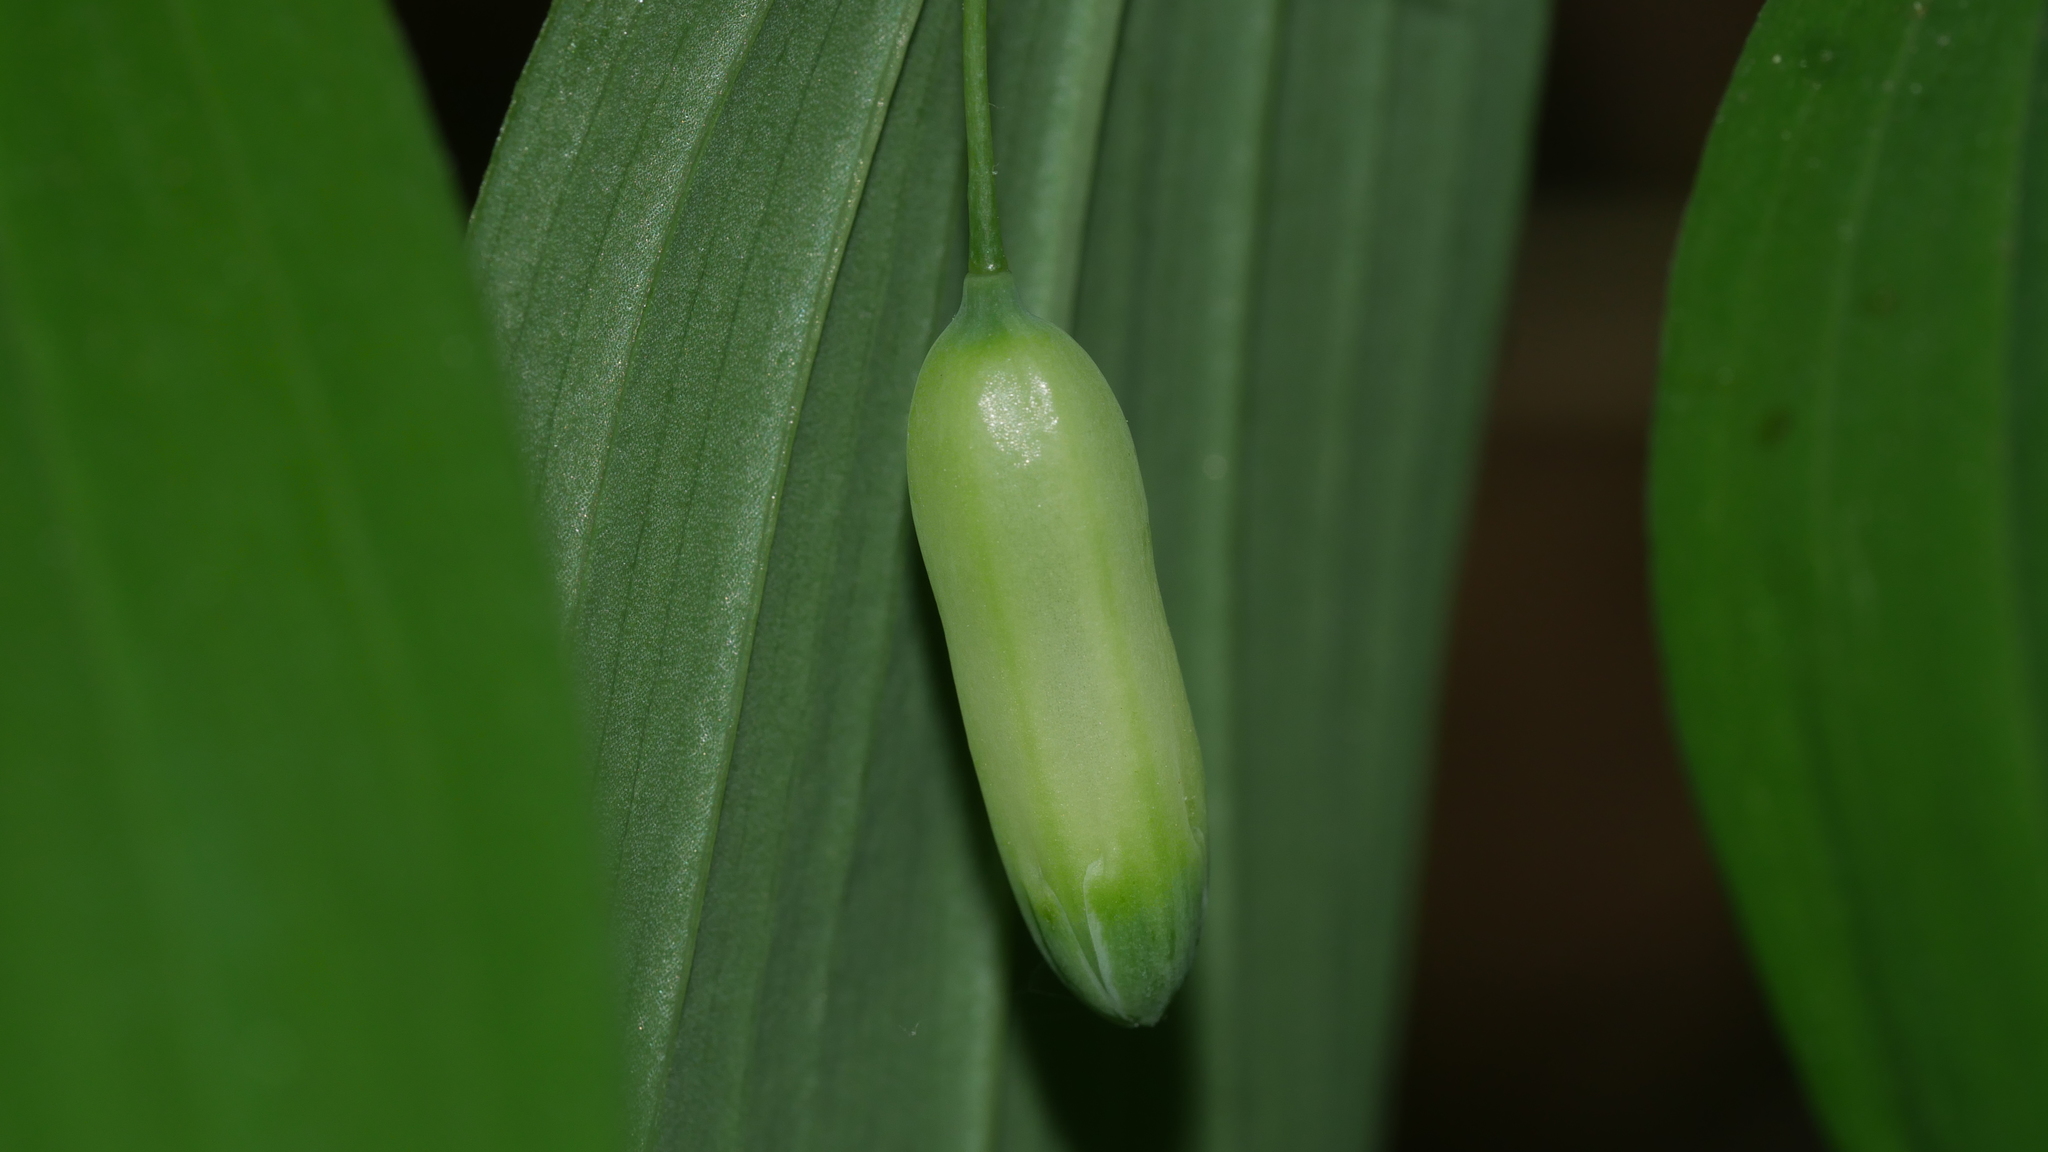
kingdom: Plantae
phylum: Tracheophyta
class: Liliopsida
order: Asparagales
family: Asparagaceae
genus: Polygonatum
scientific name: Polygonatum biflorum
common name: American solomon's-seal
